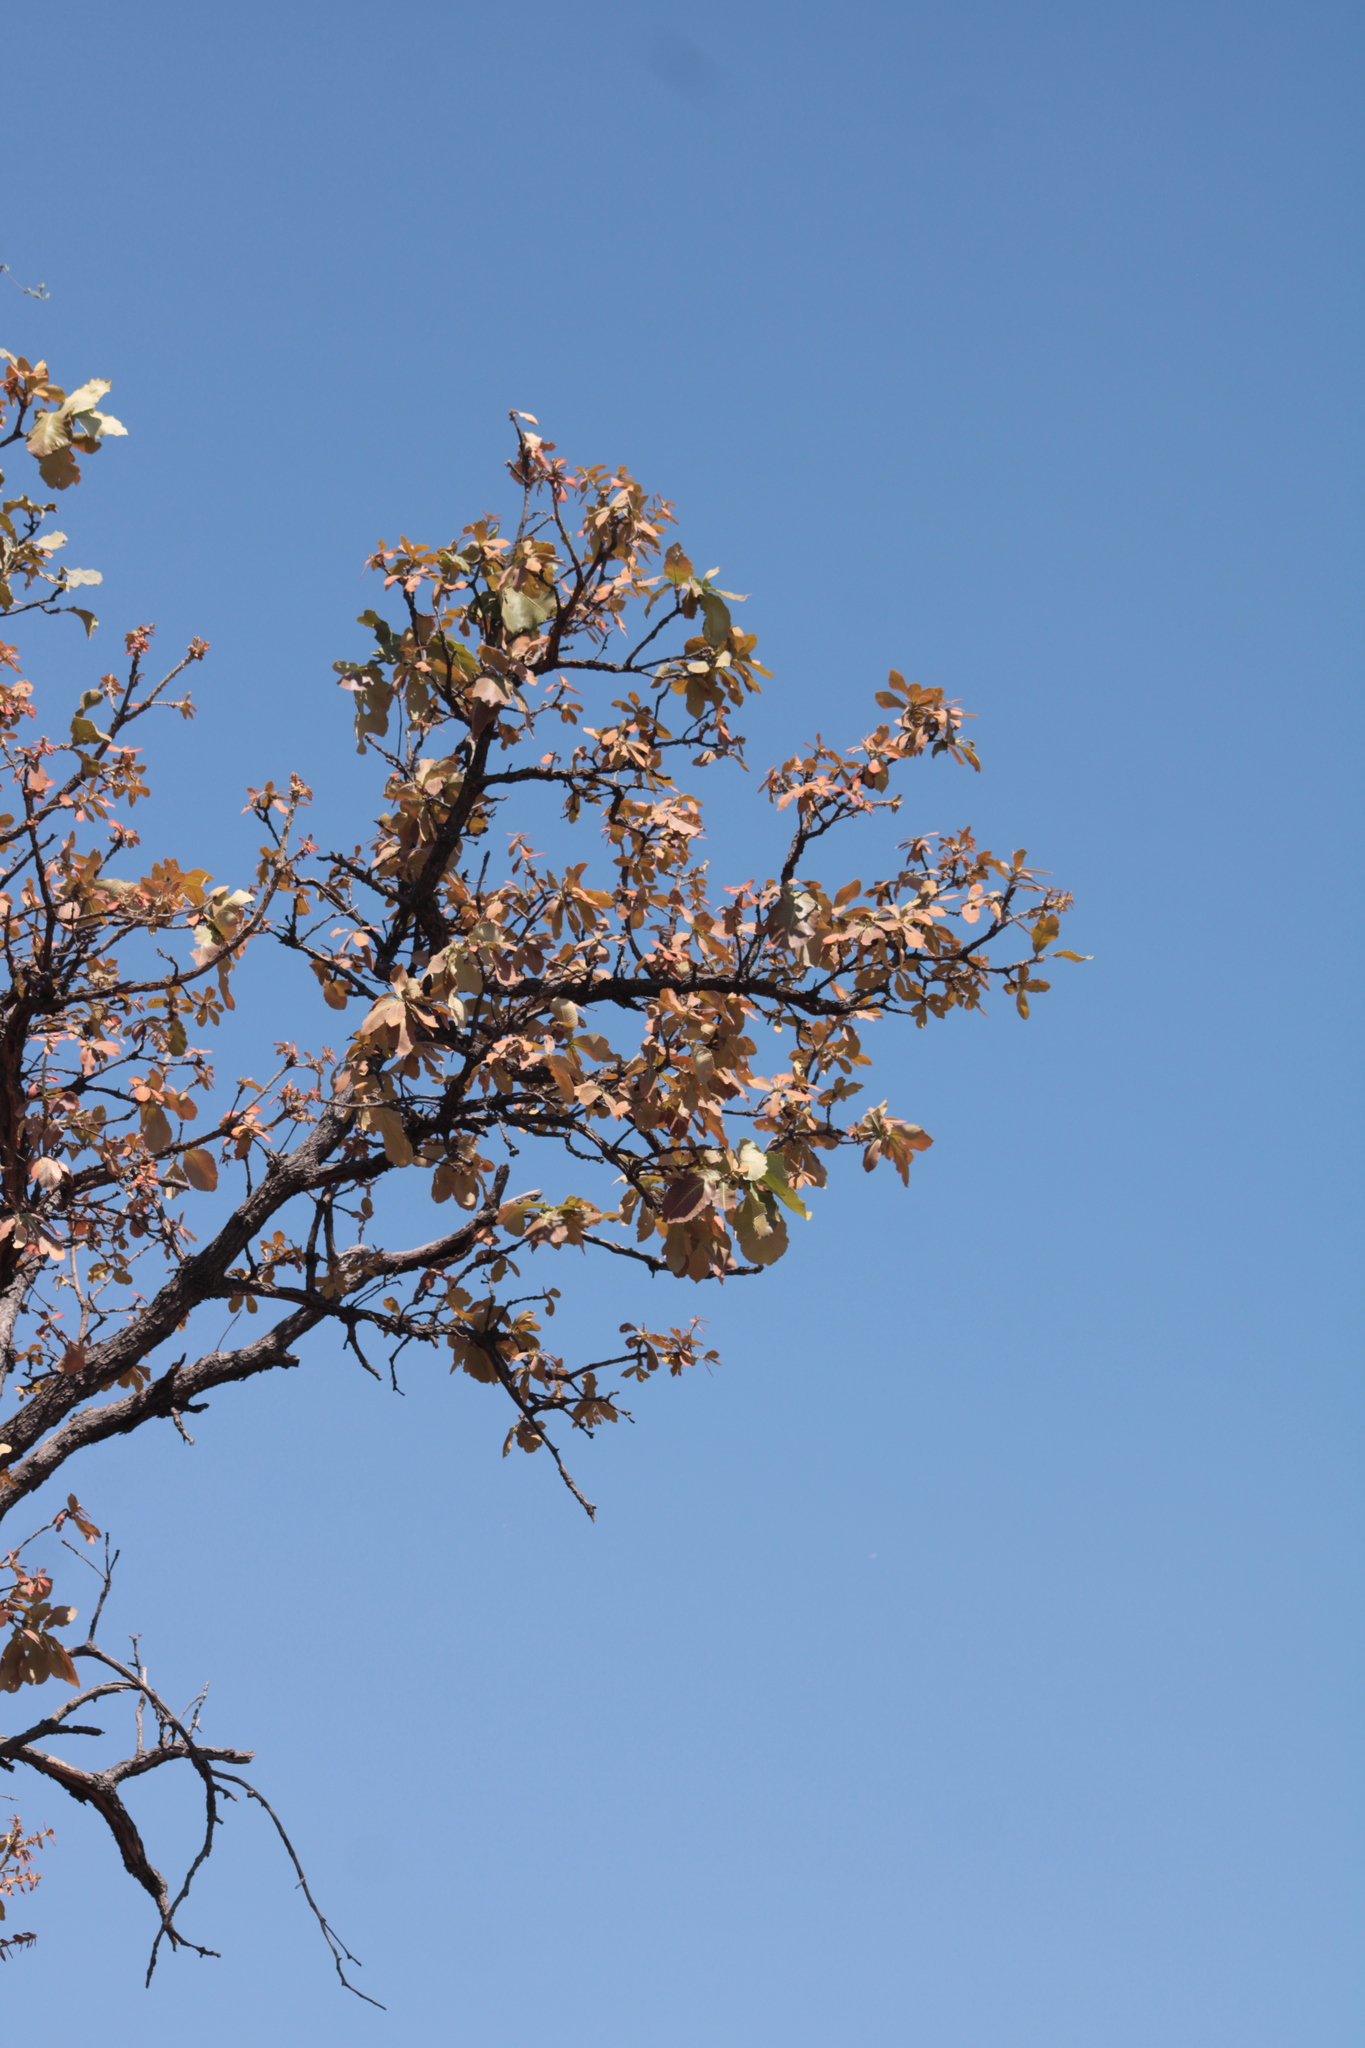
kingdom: Plantae
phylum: Tracheophyta
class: Magnoliopsida
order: Fagales
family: Fagaceae
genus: Quercus
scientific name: Quercus resinosa
